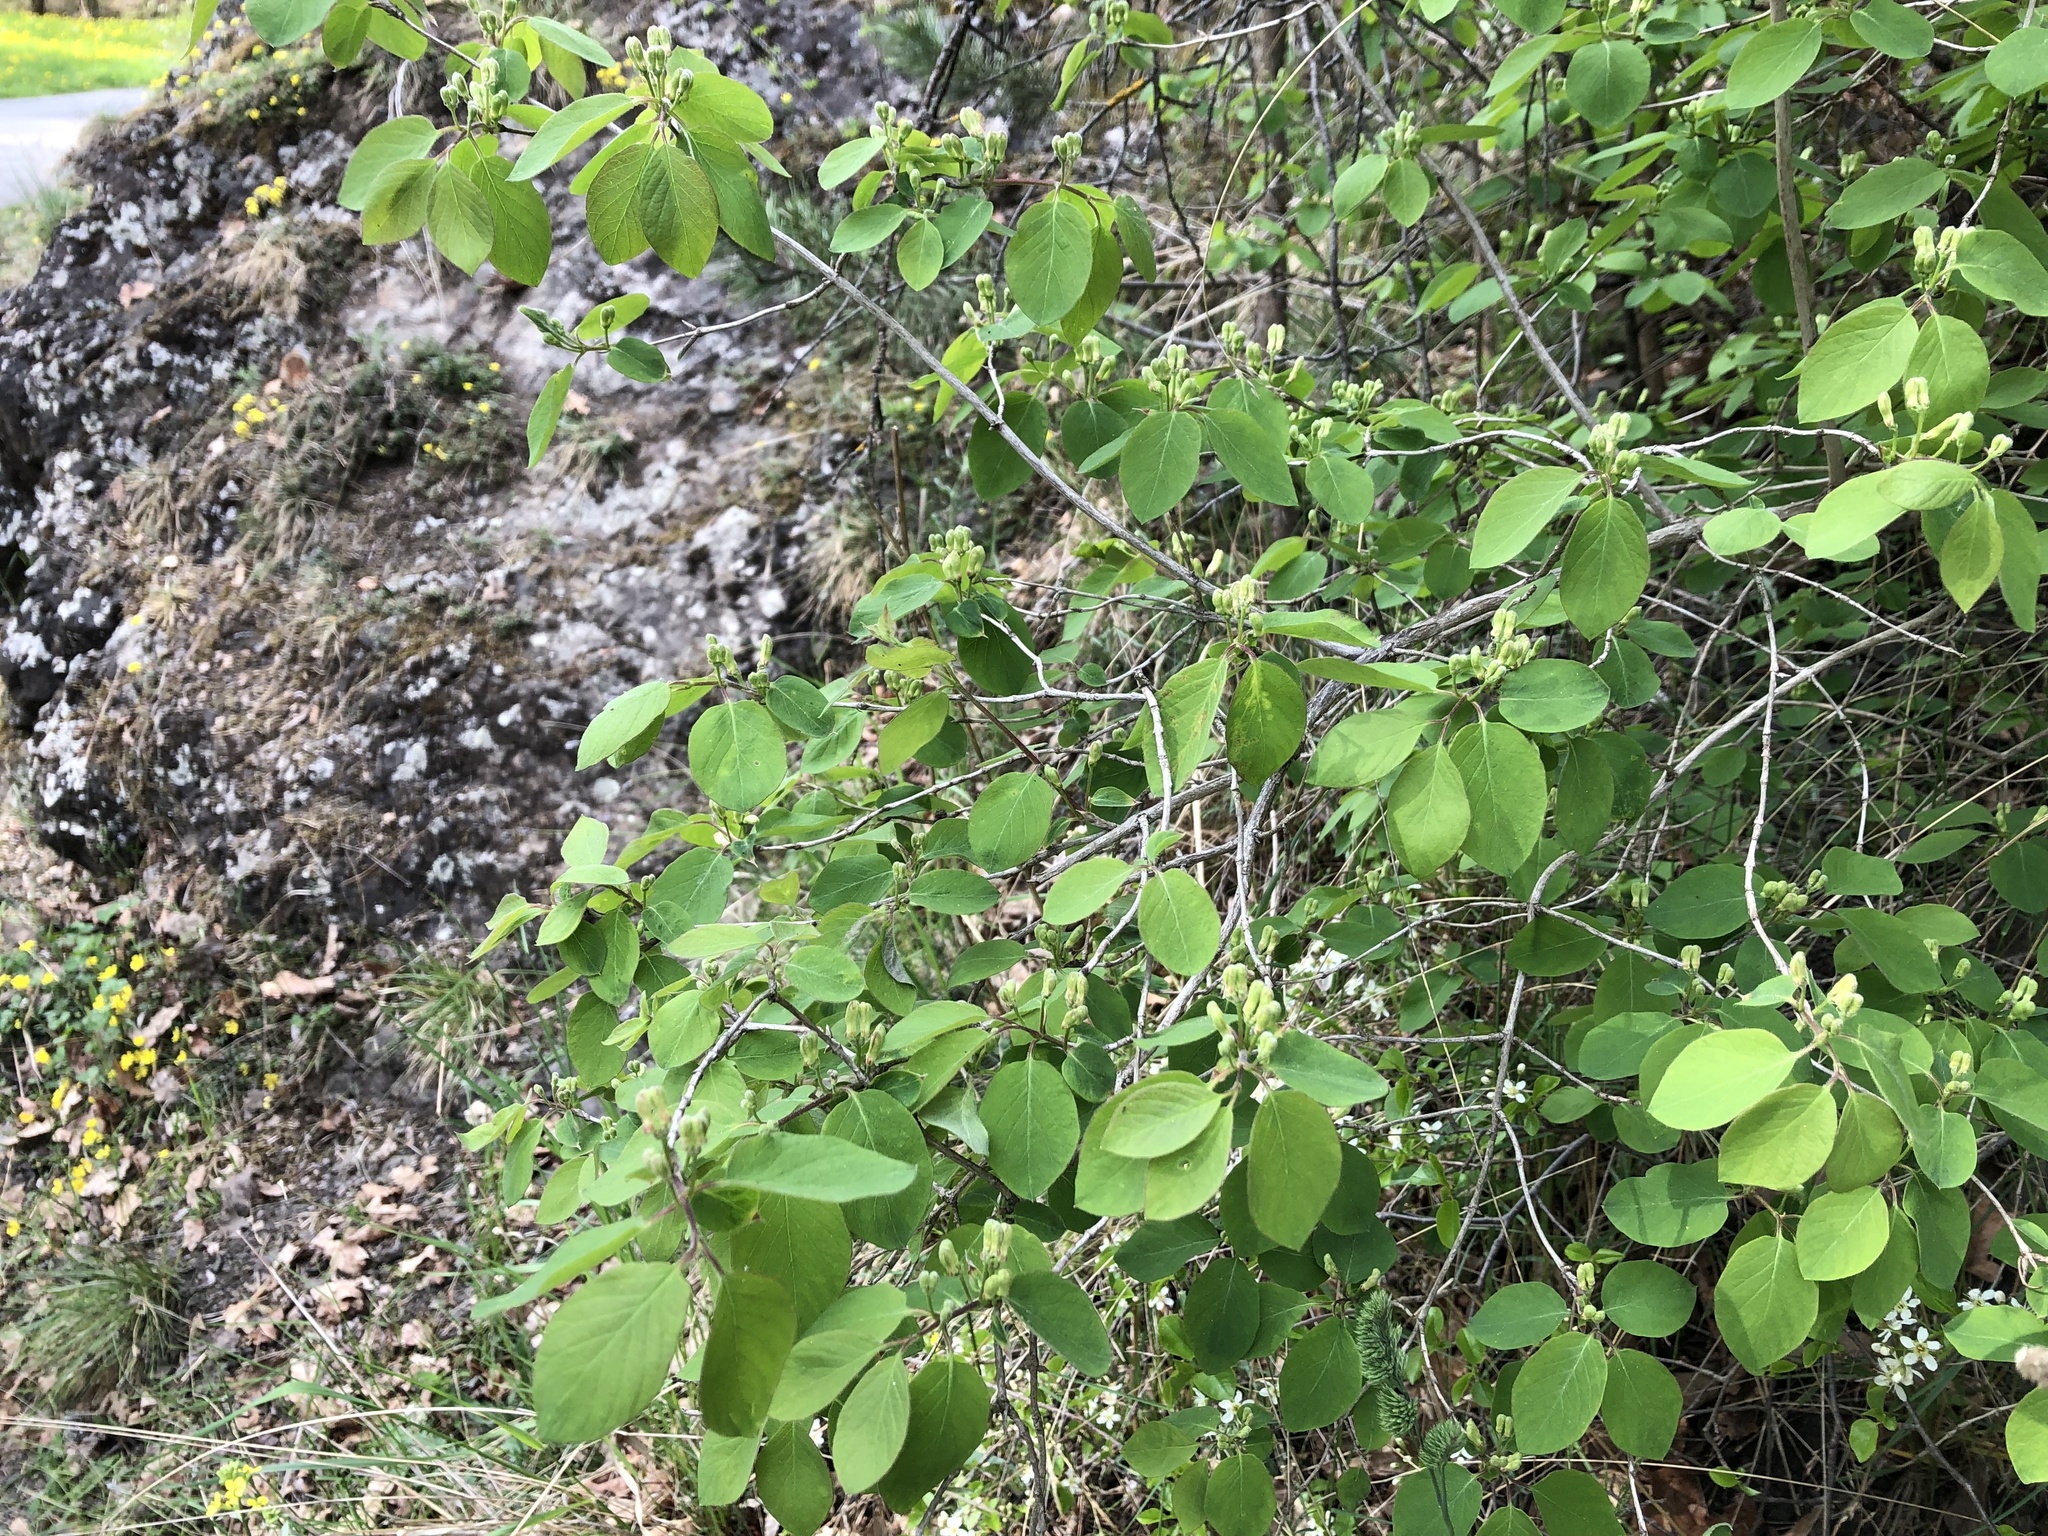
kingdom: Plantae
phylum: Tracheophyta
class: Magnoliopsida
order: Dipsacales
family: Caprifoliaceae
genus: Lonicera
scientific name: Lonicera xylosteum
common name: Fly honeysuckle
